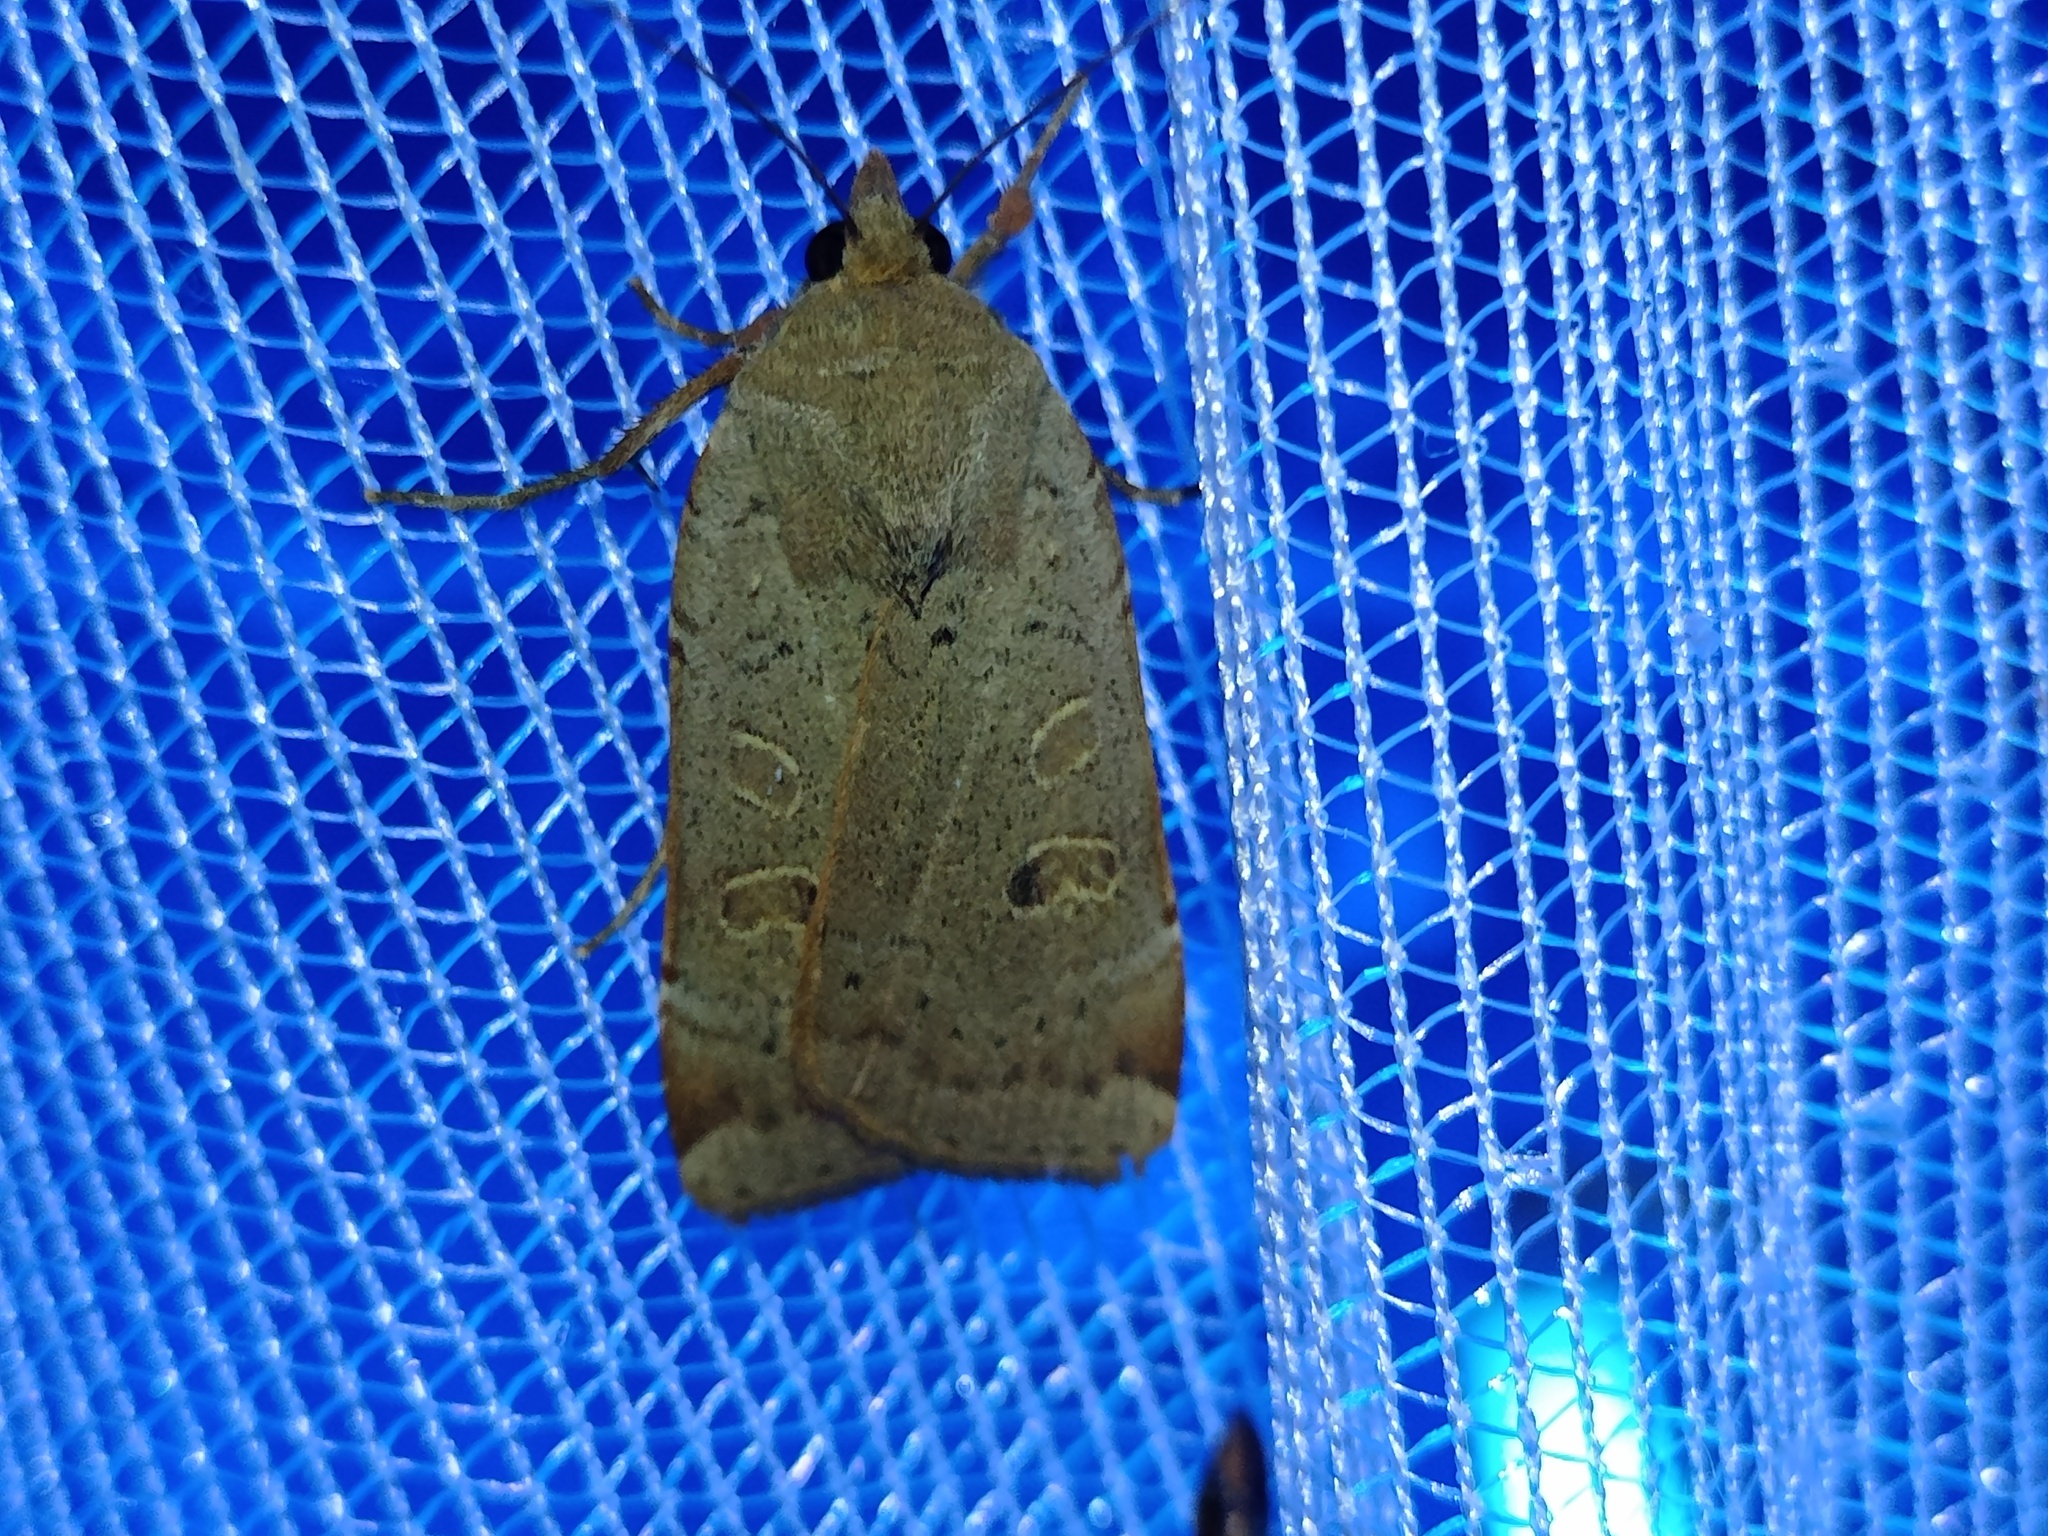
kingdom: Animalia
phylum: Arthropoda
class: Insecta
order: Lepidoptera
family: Noctuidae
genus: Noctua
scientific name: Noctua comes
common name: Lesser yellow underwing
